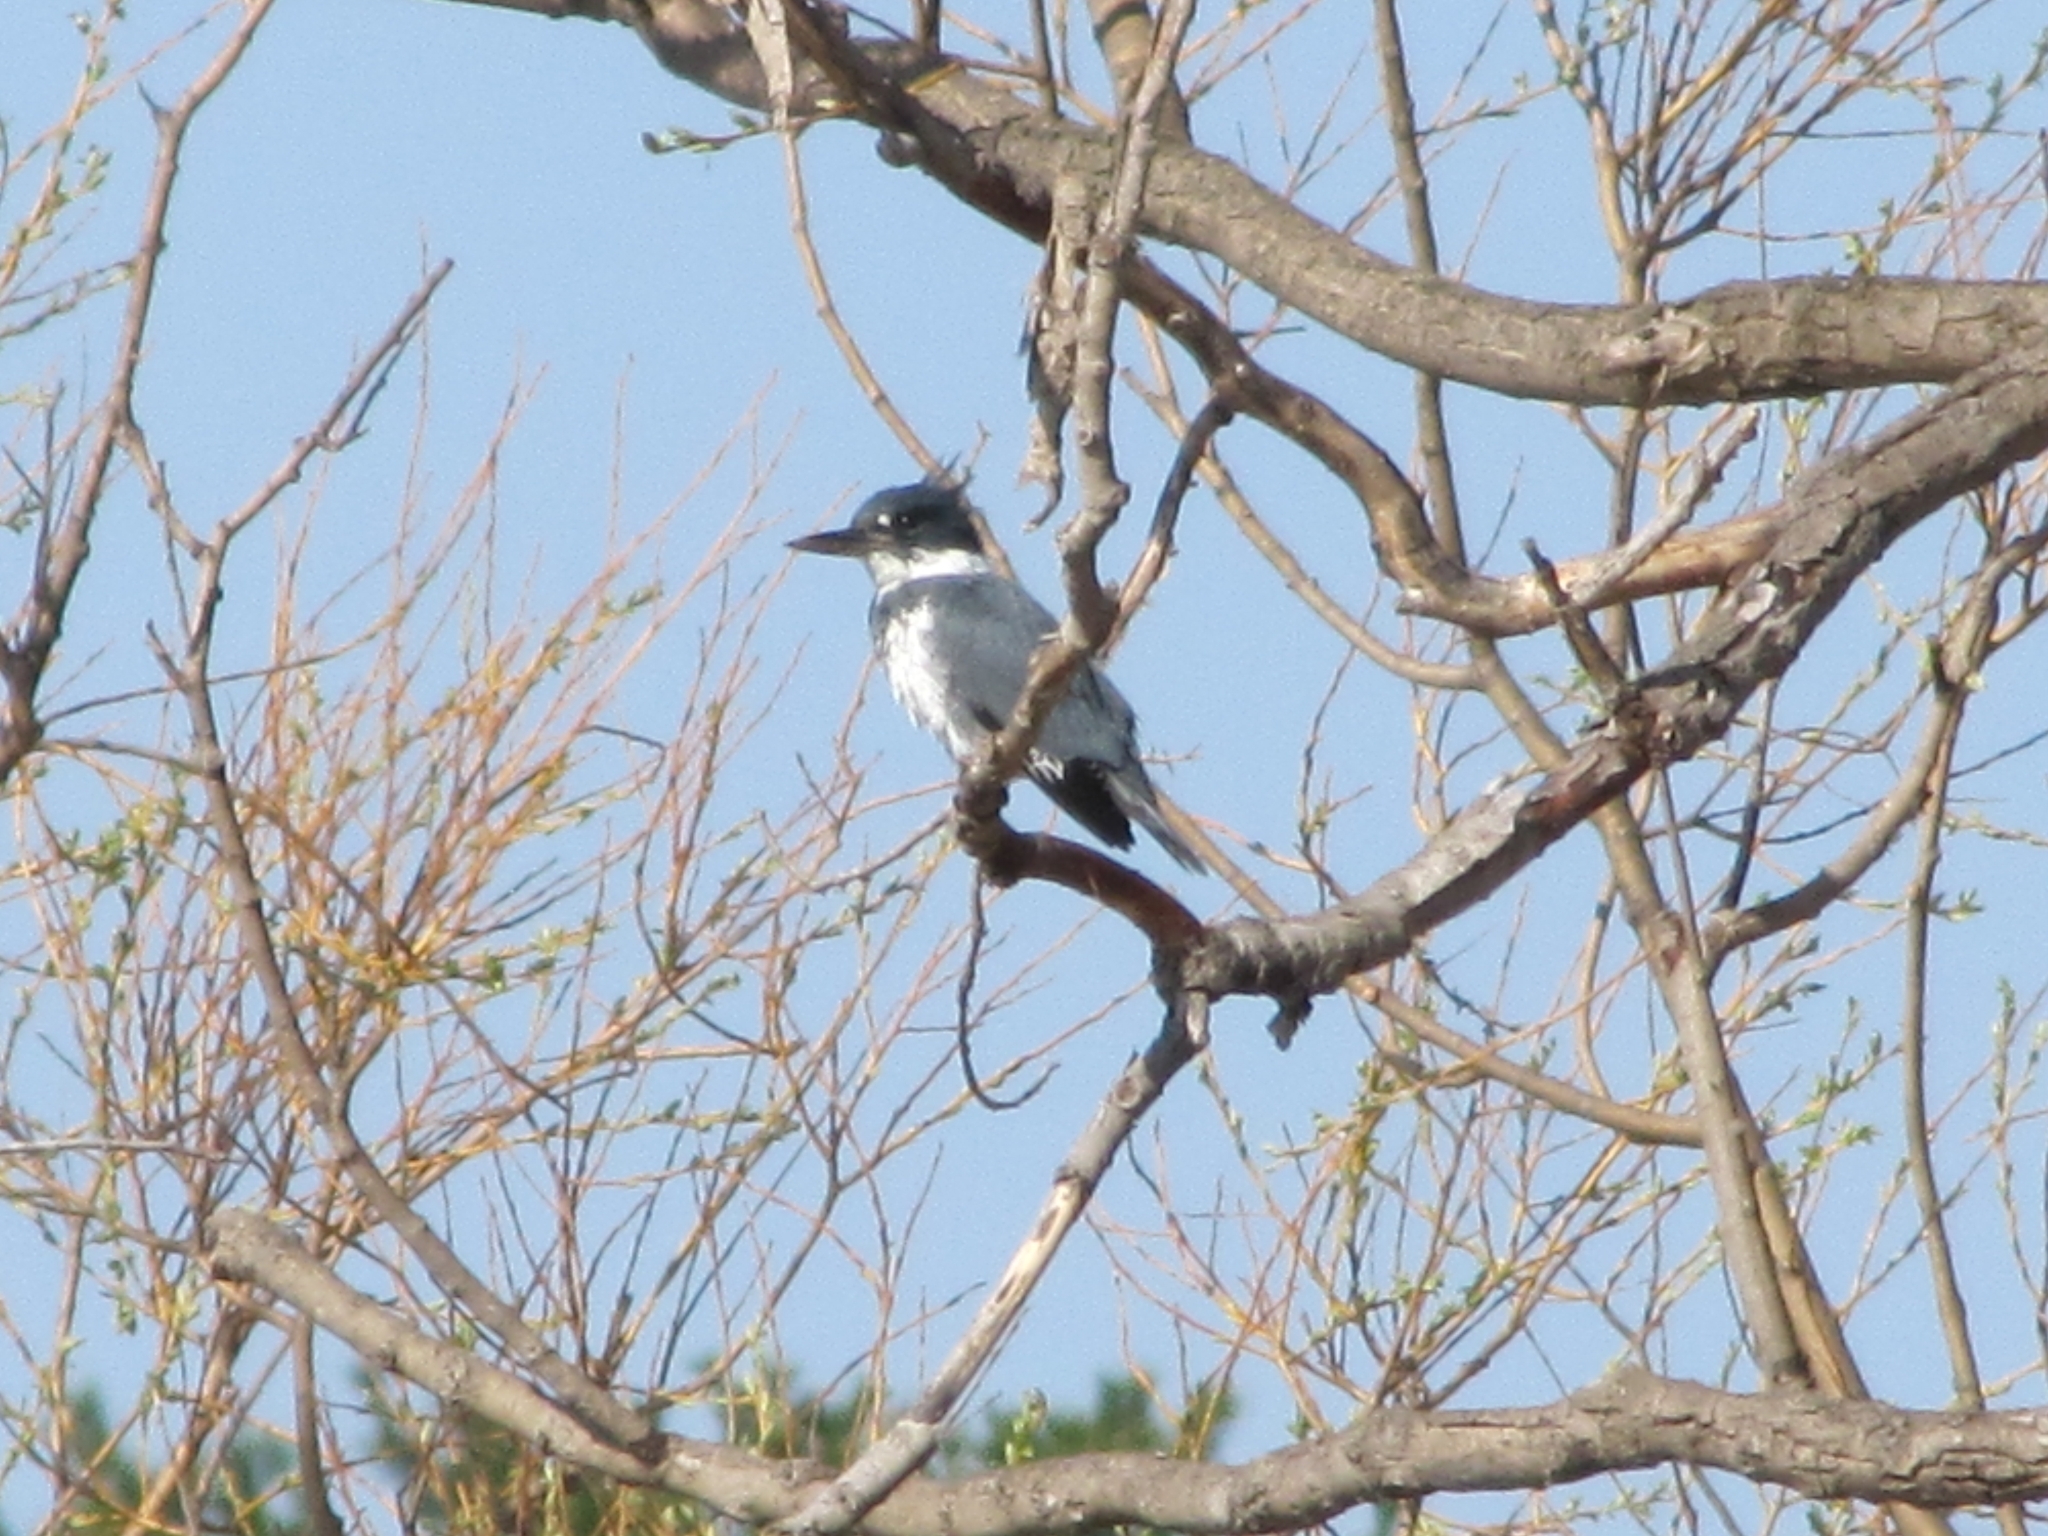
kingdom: Animalia
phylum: Chordata
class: Aves
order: Coraciiformes
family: Alcedinidae
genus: Megaceryle
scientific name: Megaceryle alcyon
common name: Belted kingfisher
